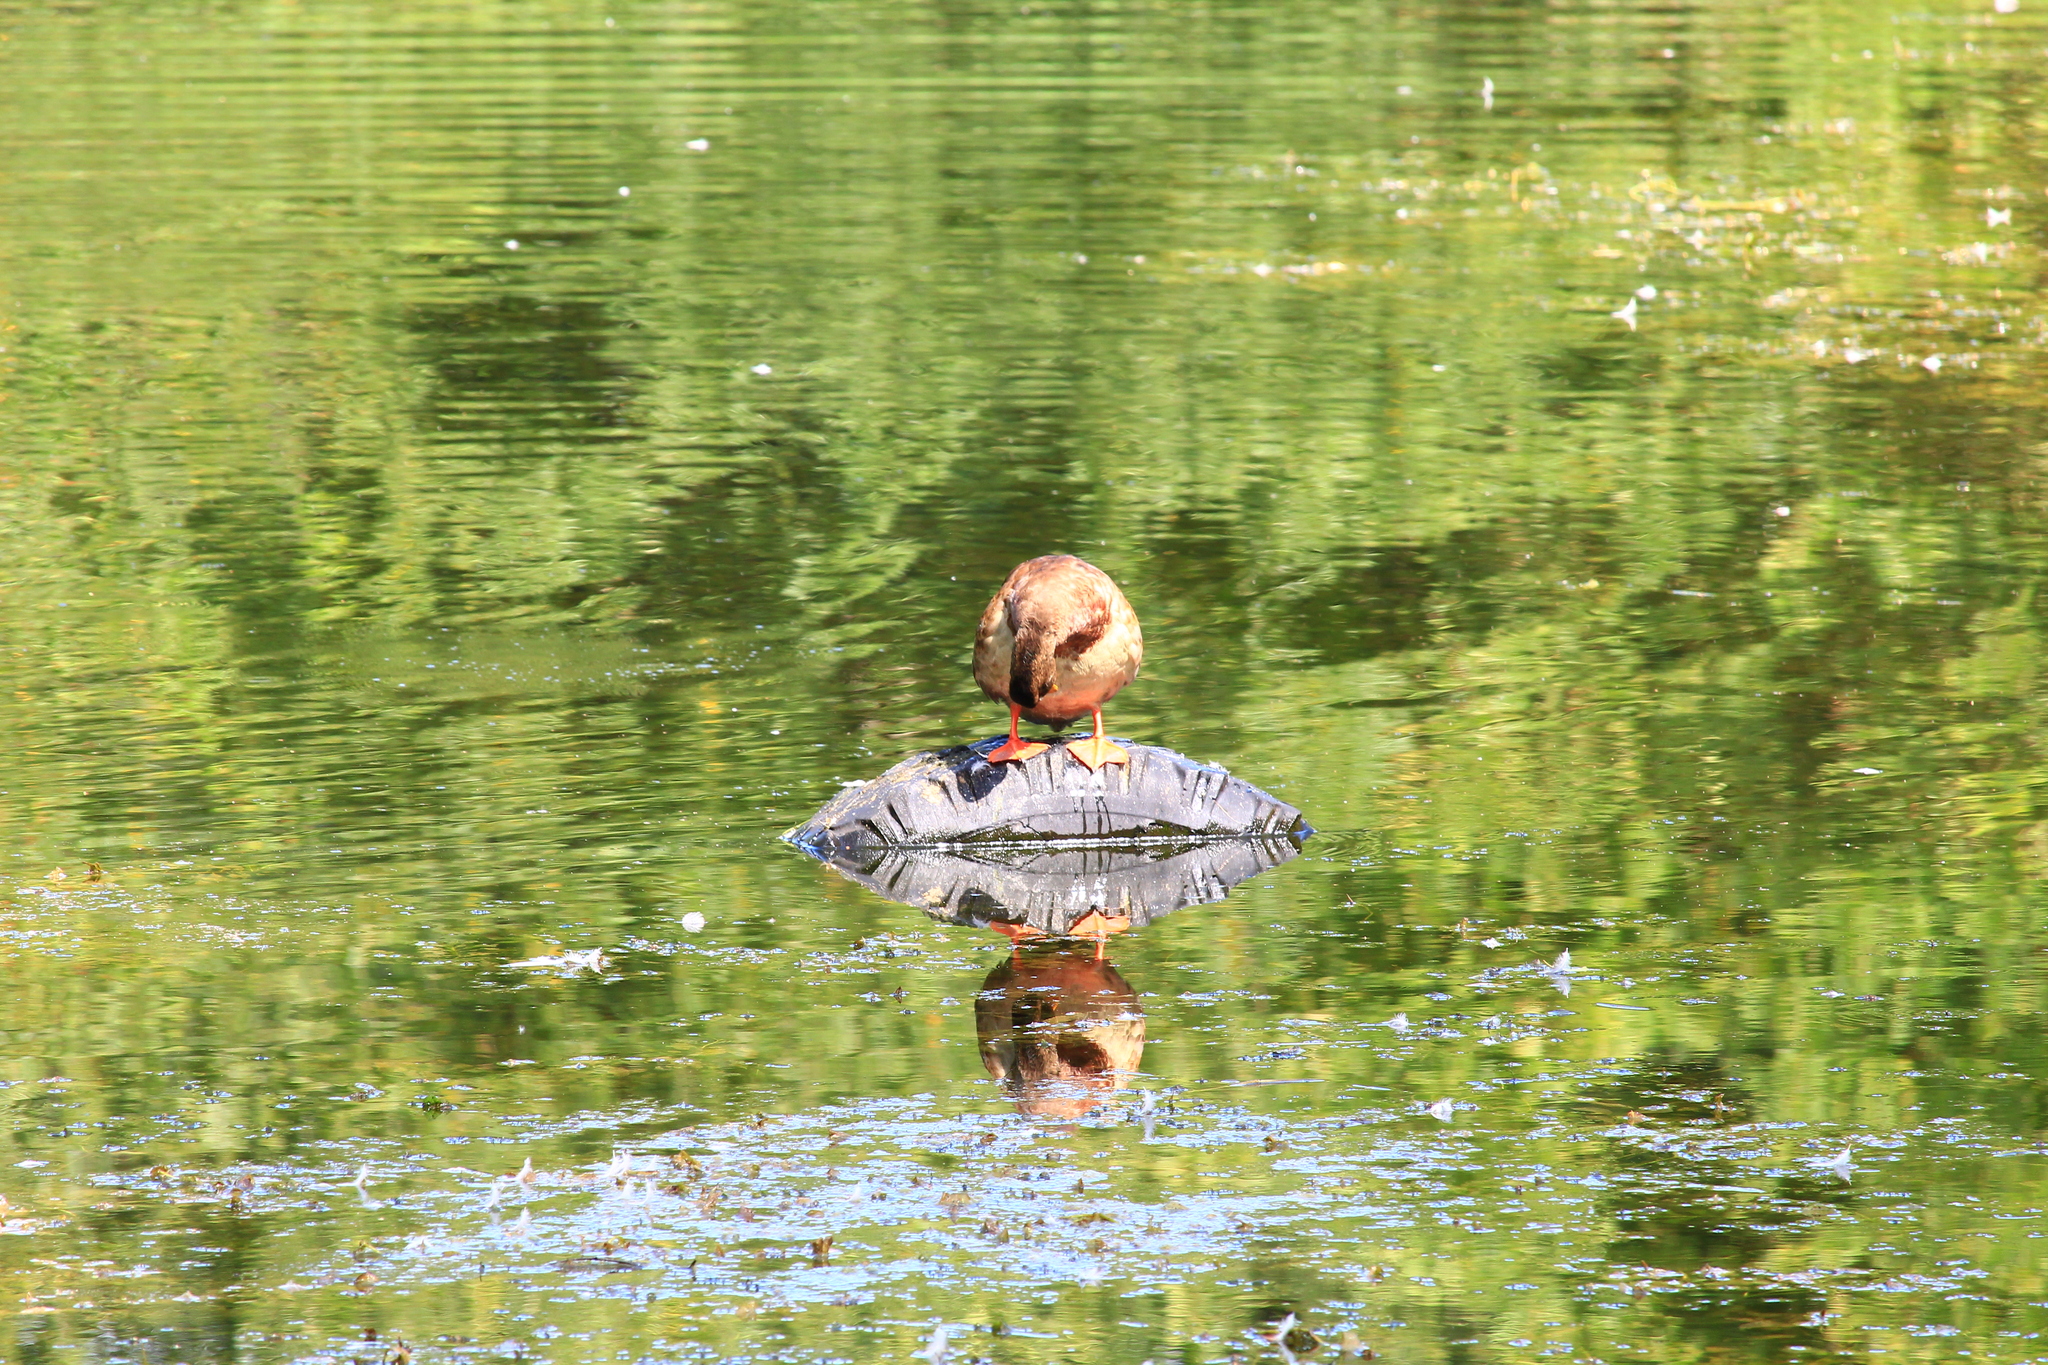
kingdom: Animalia
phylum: Chordata
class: Aves
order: Anseriformes
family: Anatidae
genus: Anas
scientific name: Anas platyrhynchos
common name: Mallard
